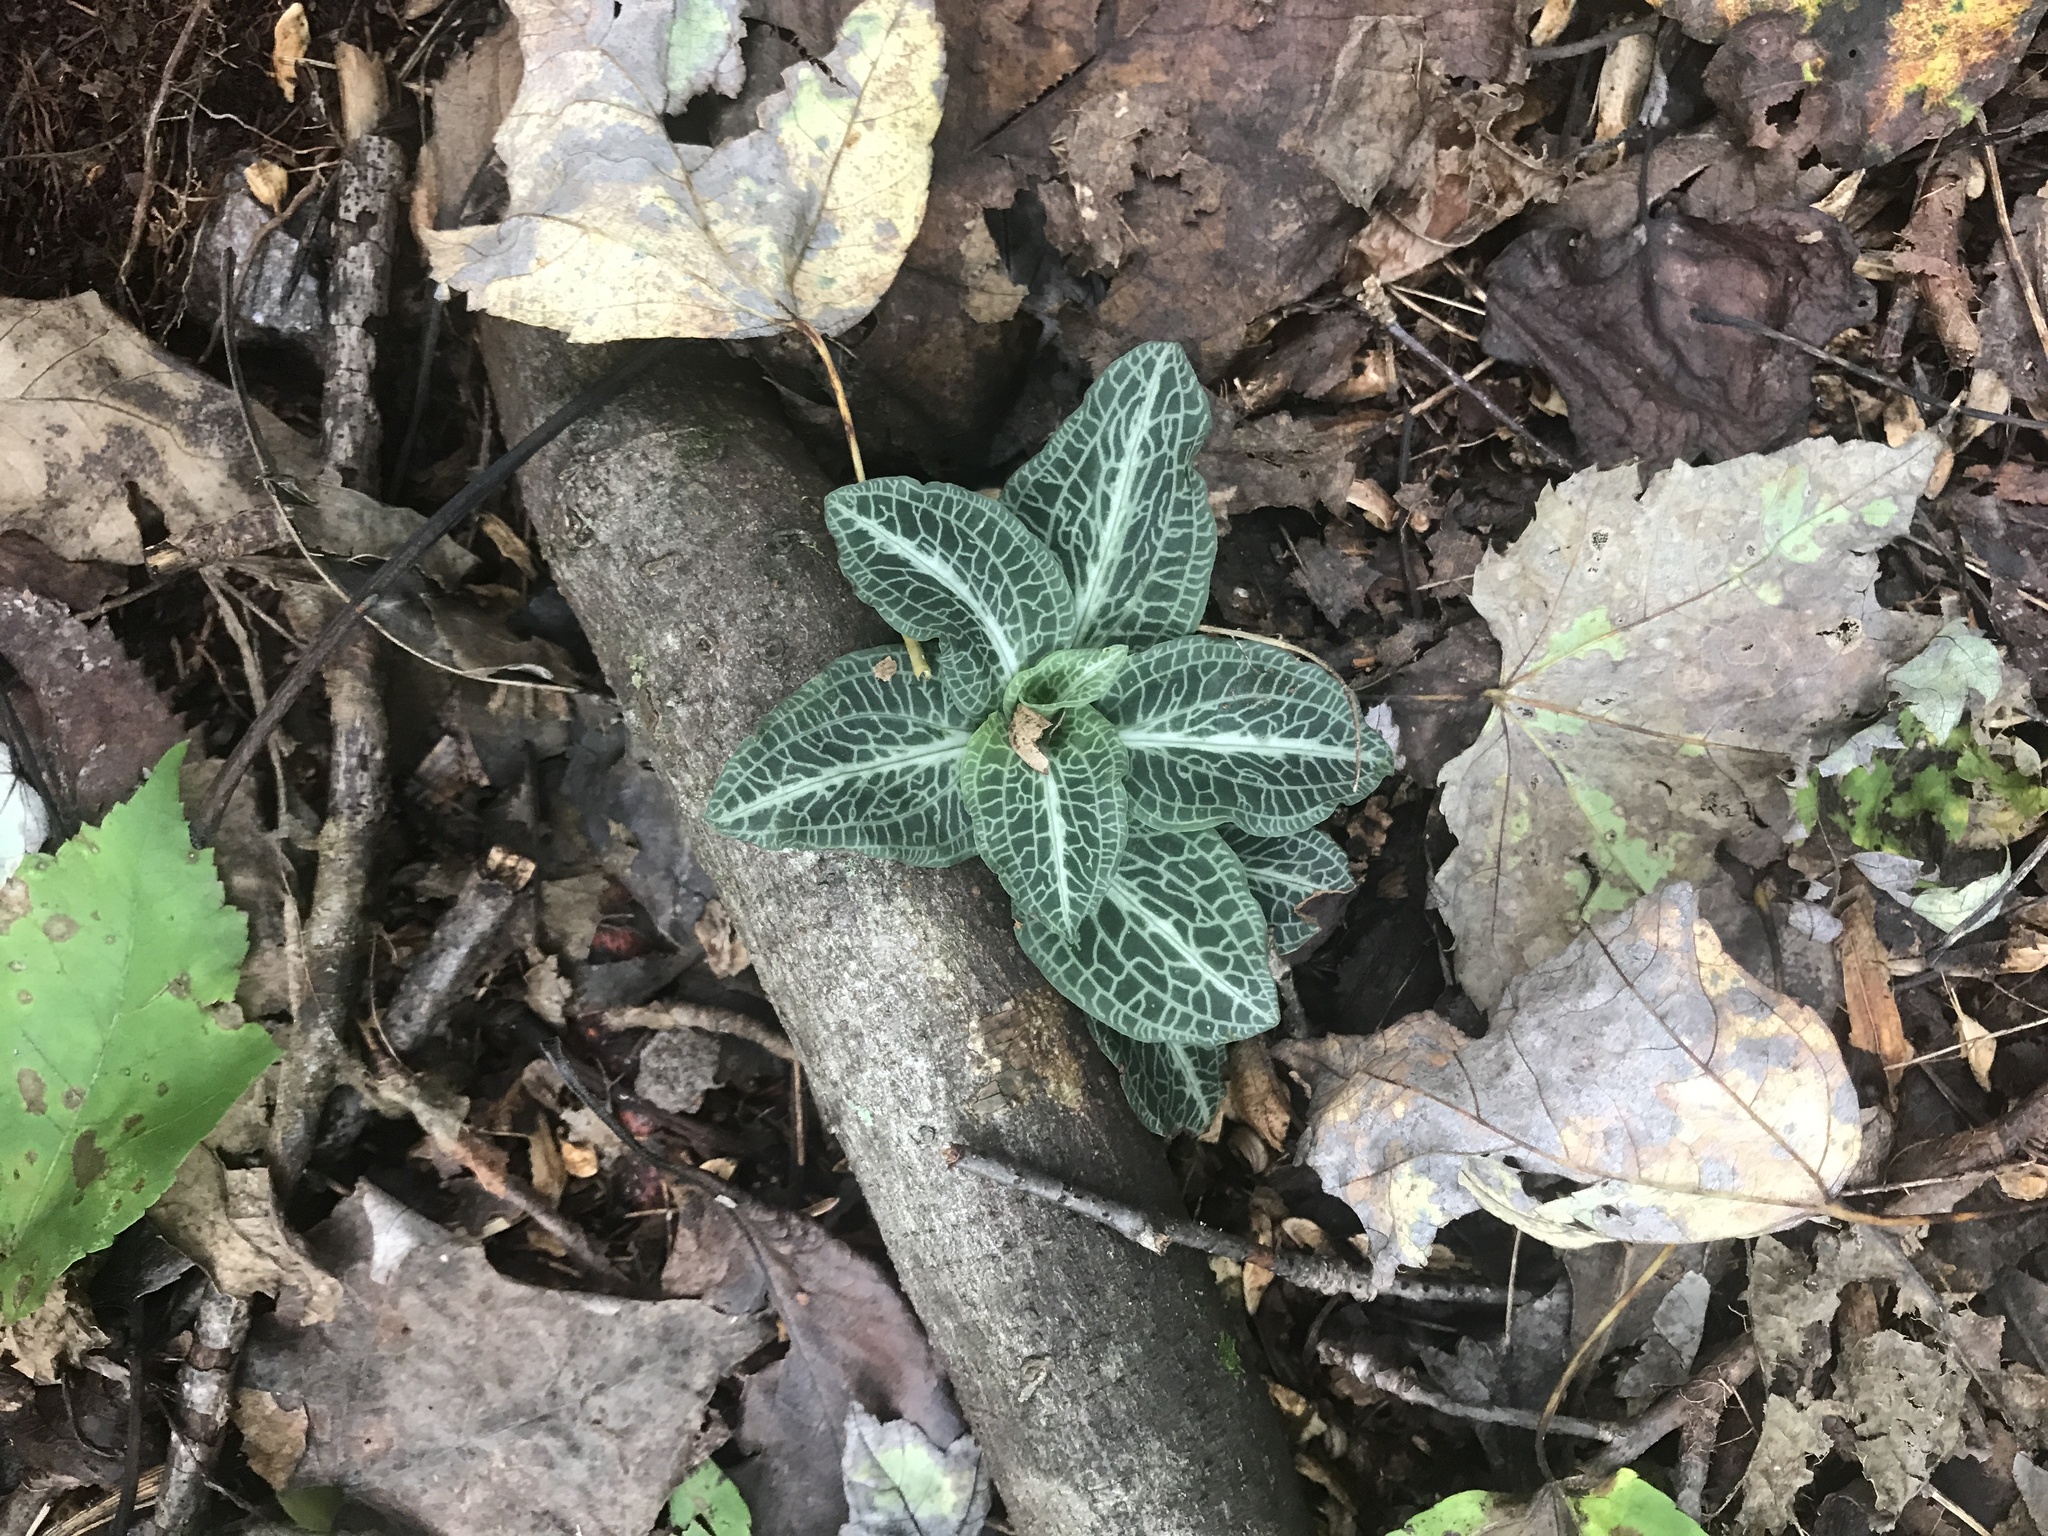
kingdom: Plantae
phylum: Tracheophyta
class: Liliopsida
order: Asparagales
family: Orchidaceae
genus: Goodyera
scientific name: Goodyera pubescens
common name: Downy rattlesnake-plantain
